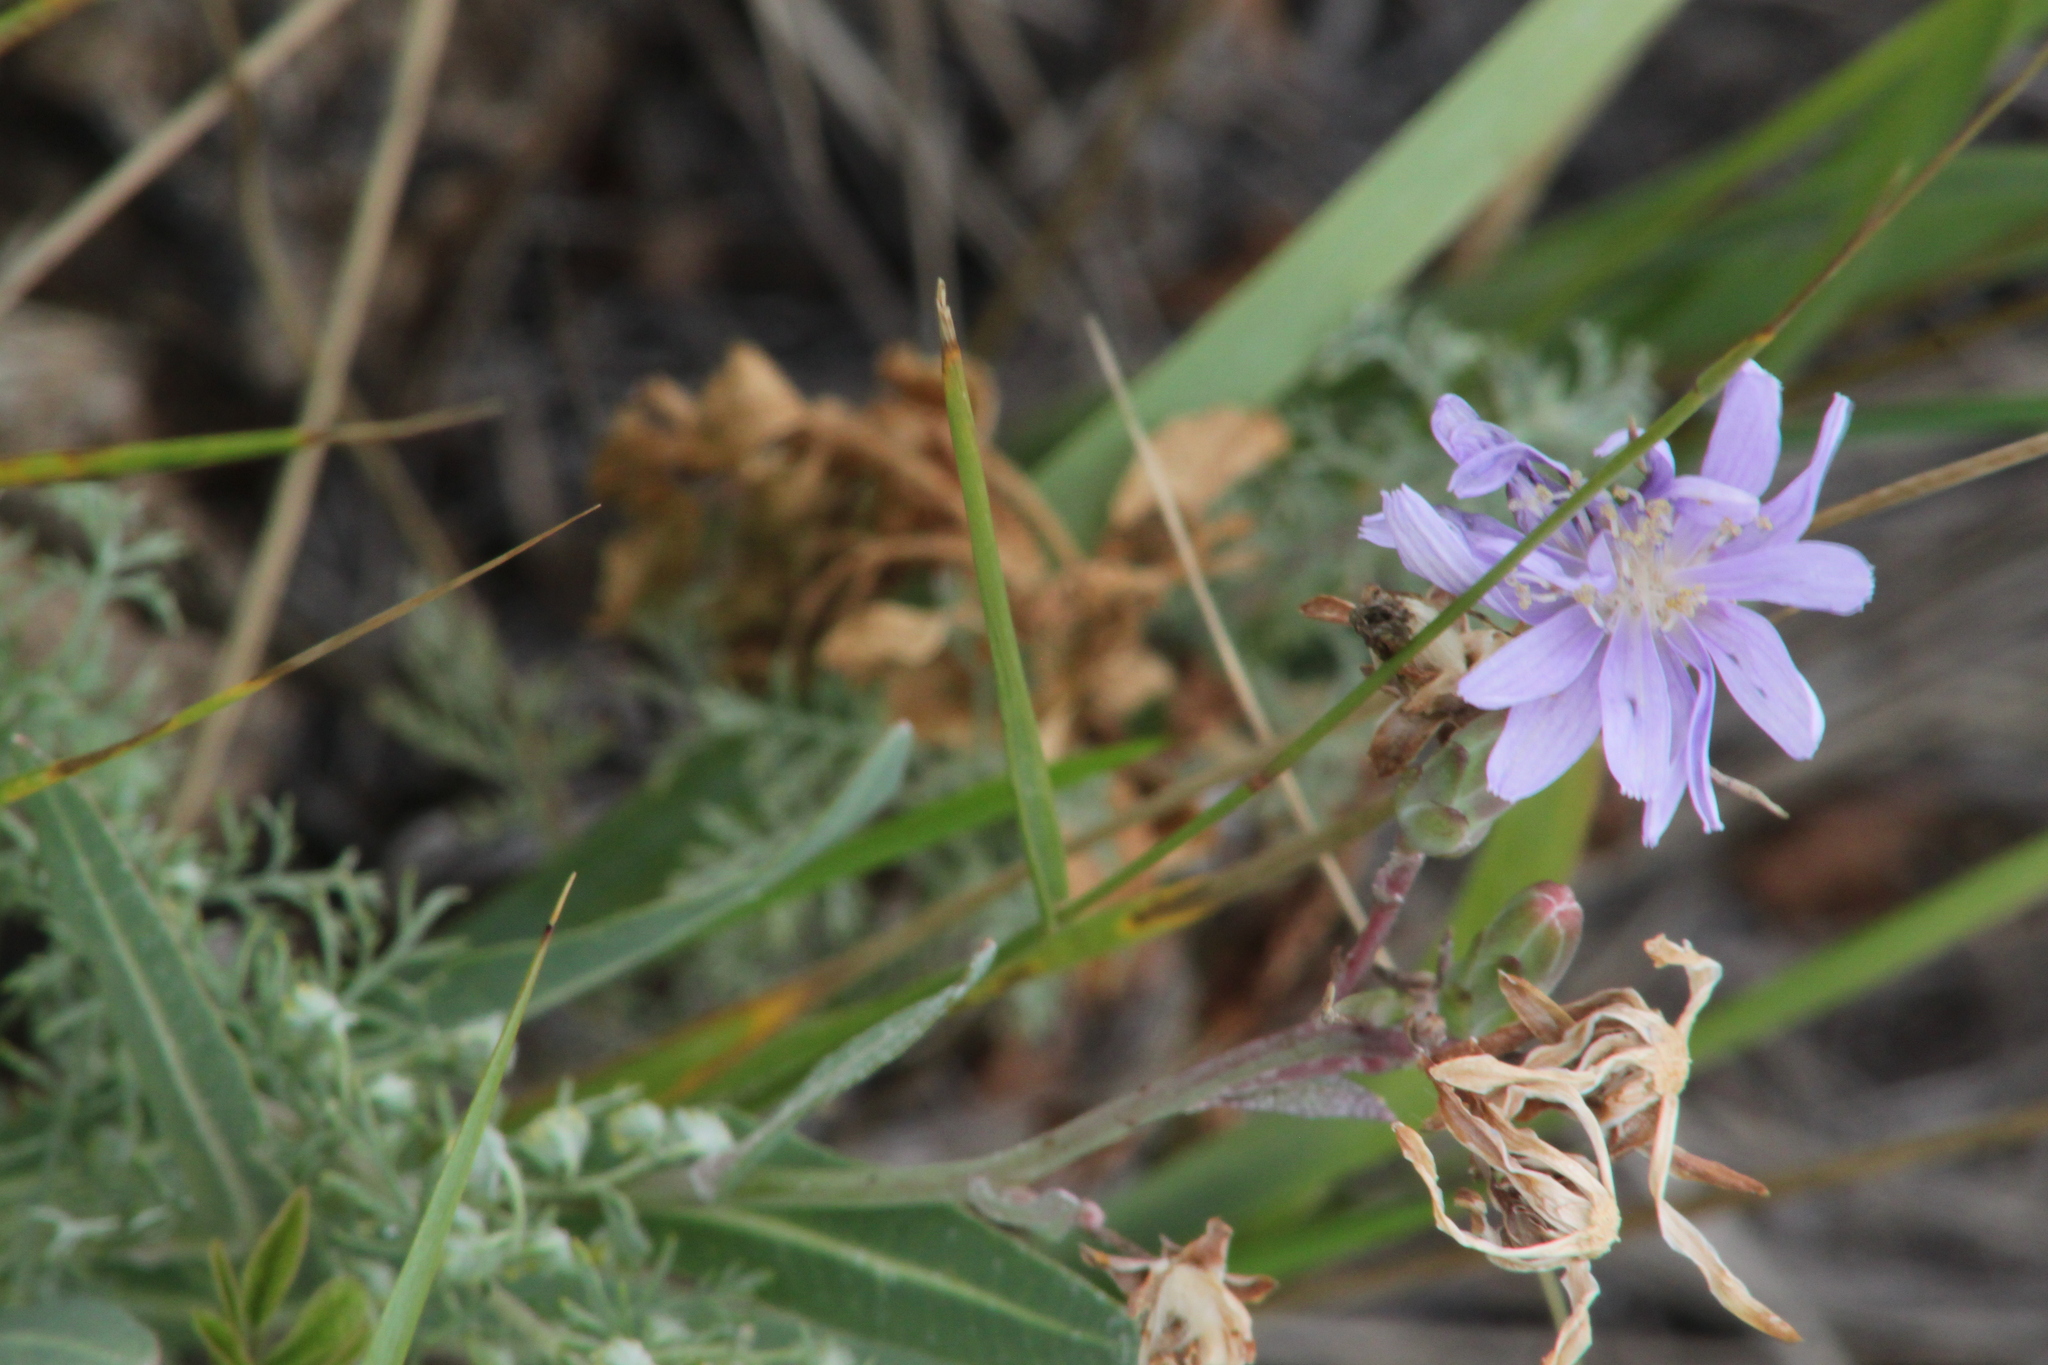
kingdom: Plantae
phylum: Tracheophyta
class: Magnoliopsida
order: Asterales
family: Asteraceae
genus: Lactuca
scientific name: Lactuca tatarica
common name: Blue lettuce
